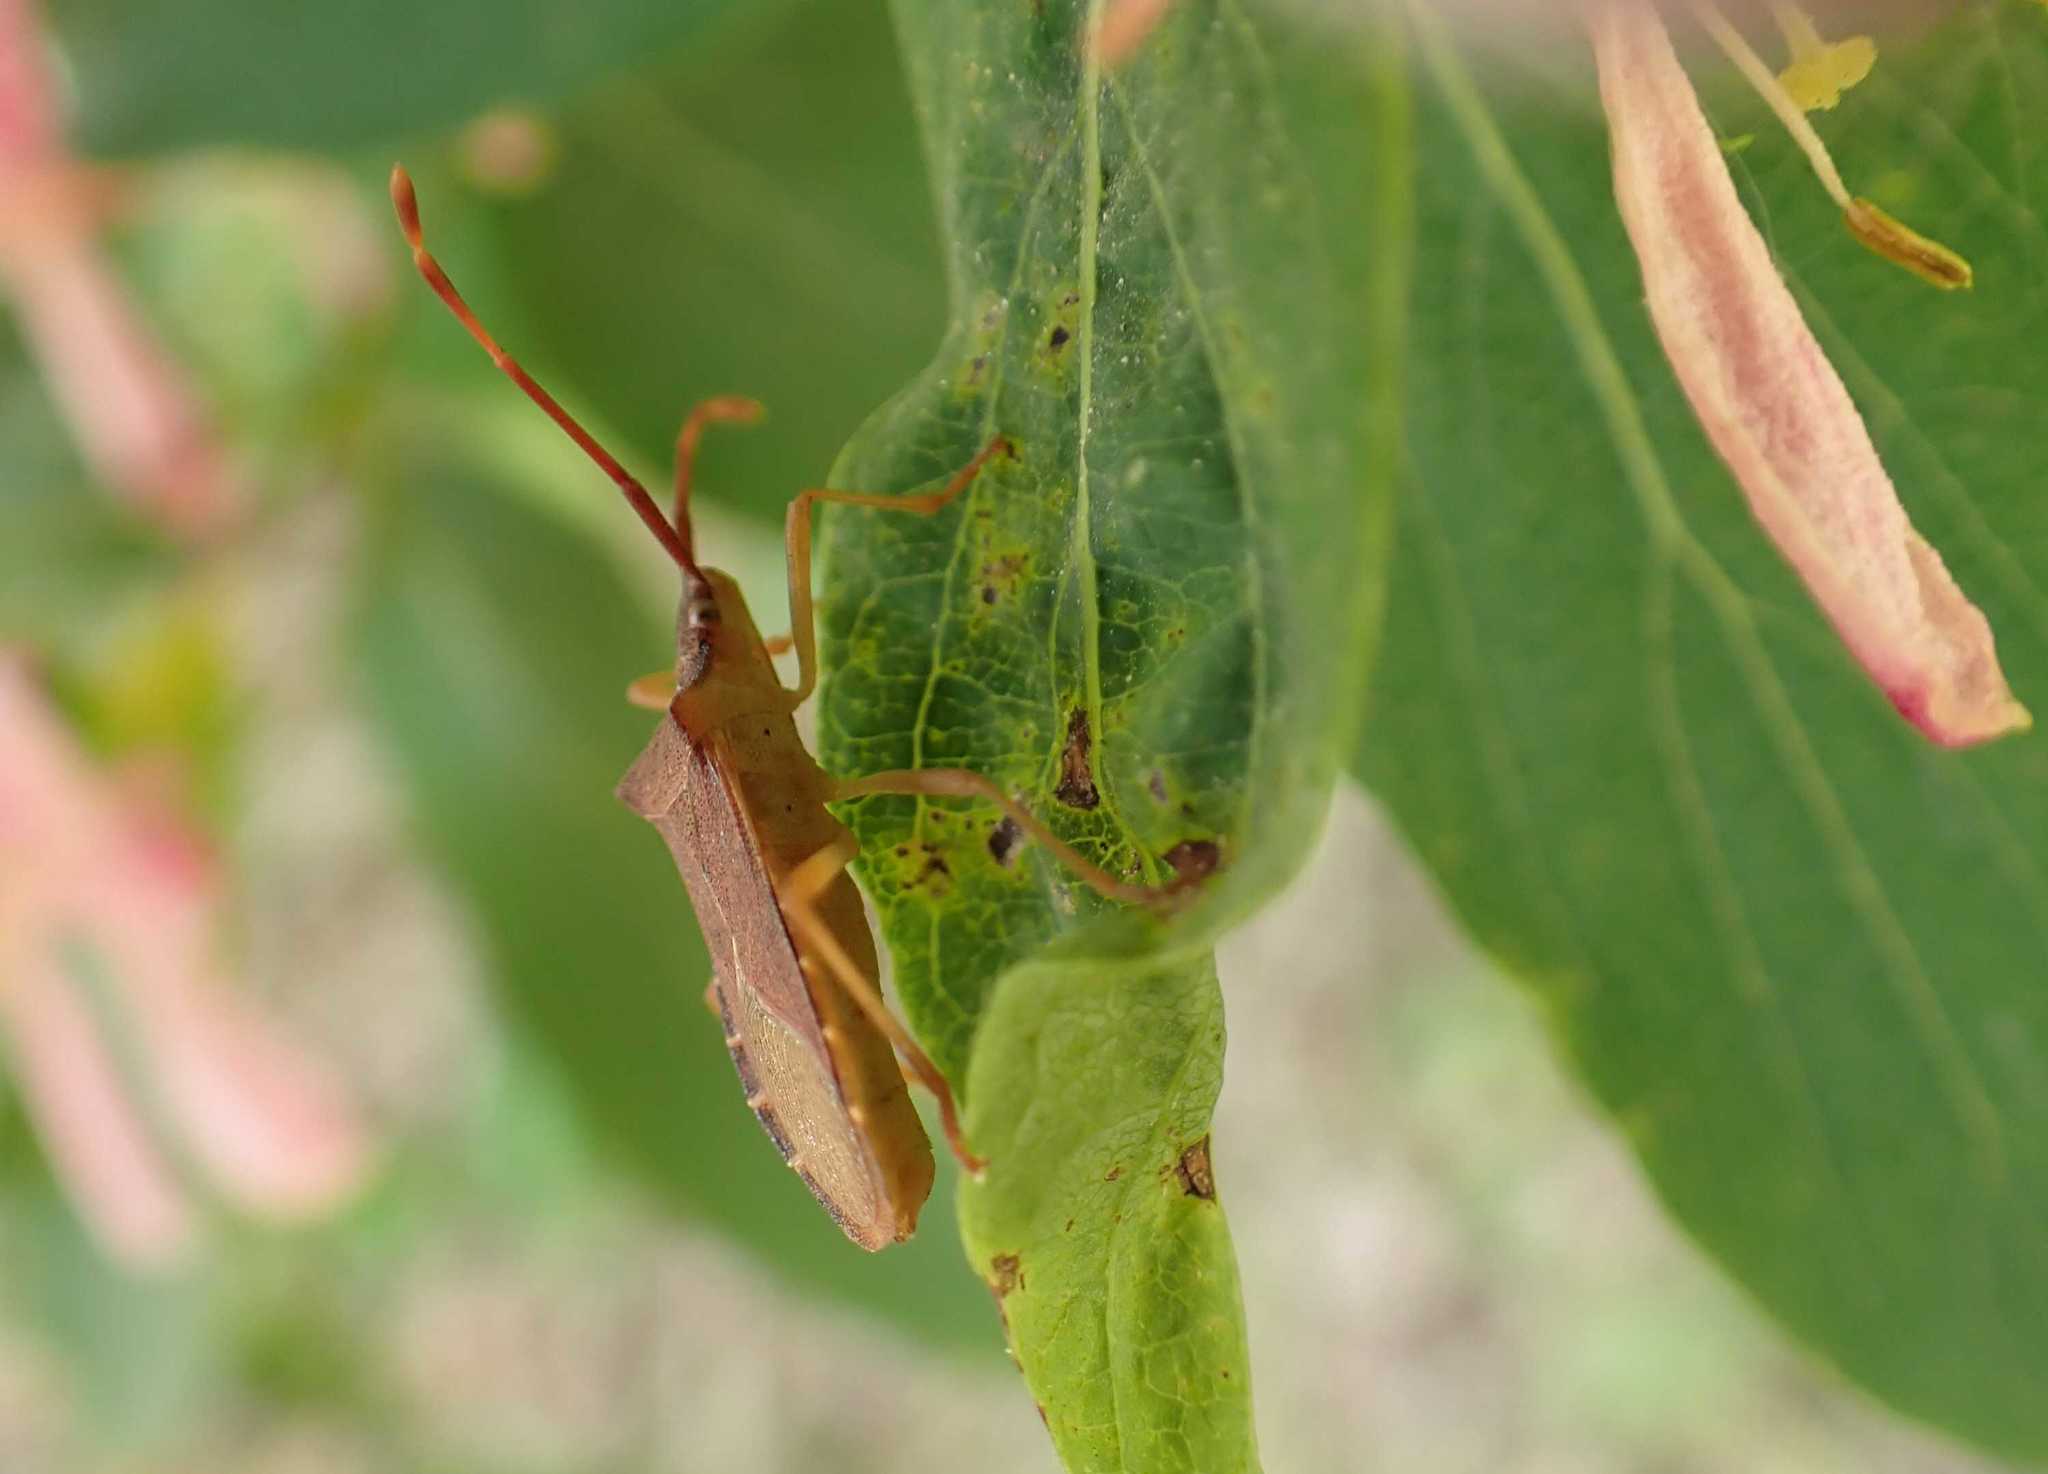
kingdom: Animalia
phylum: Arthropoda
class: Insecta
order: Hemiptera
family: Coreidae
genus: Gonocerus
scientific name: Gonocerus acuteangulatus
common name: Box bug
